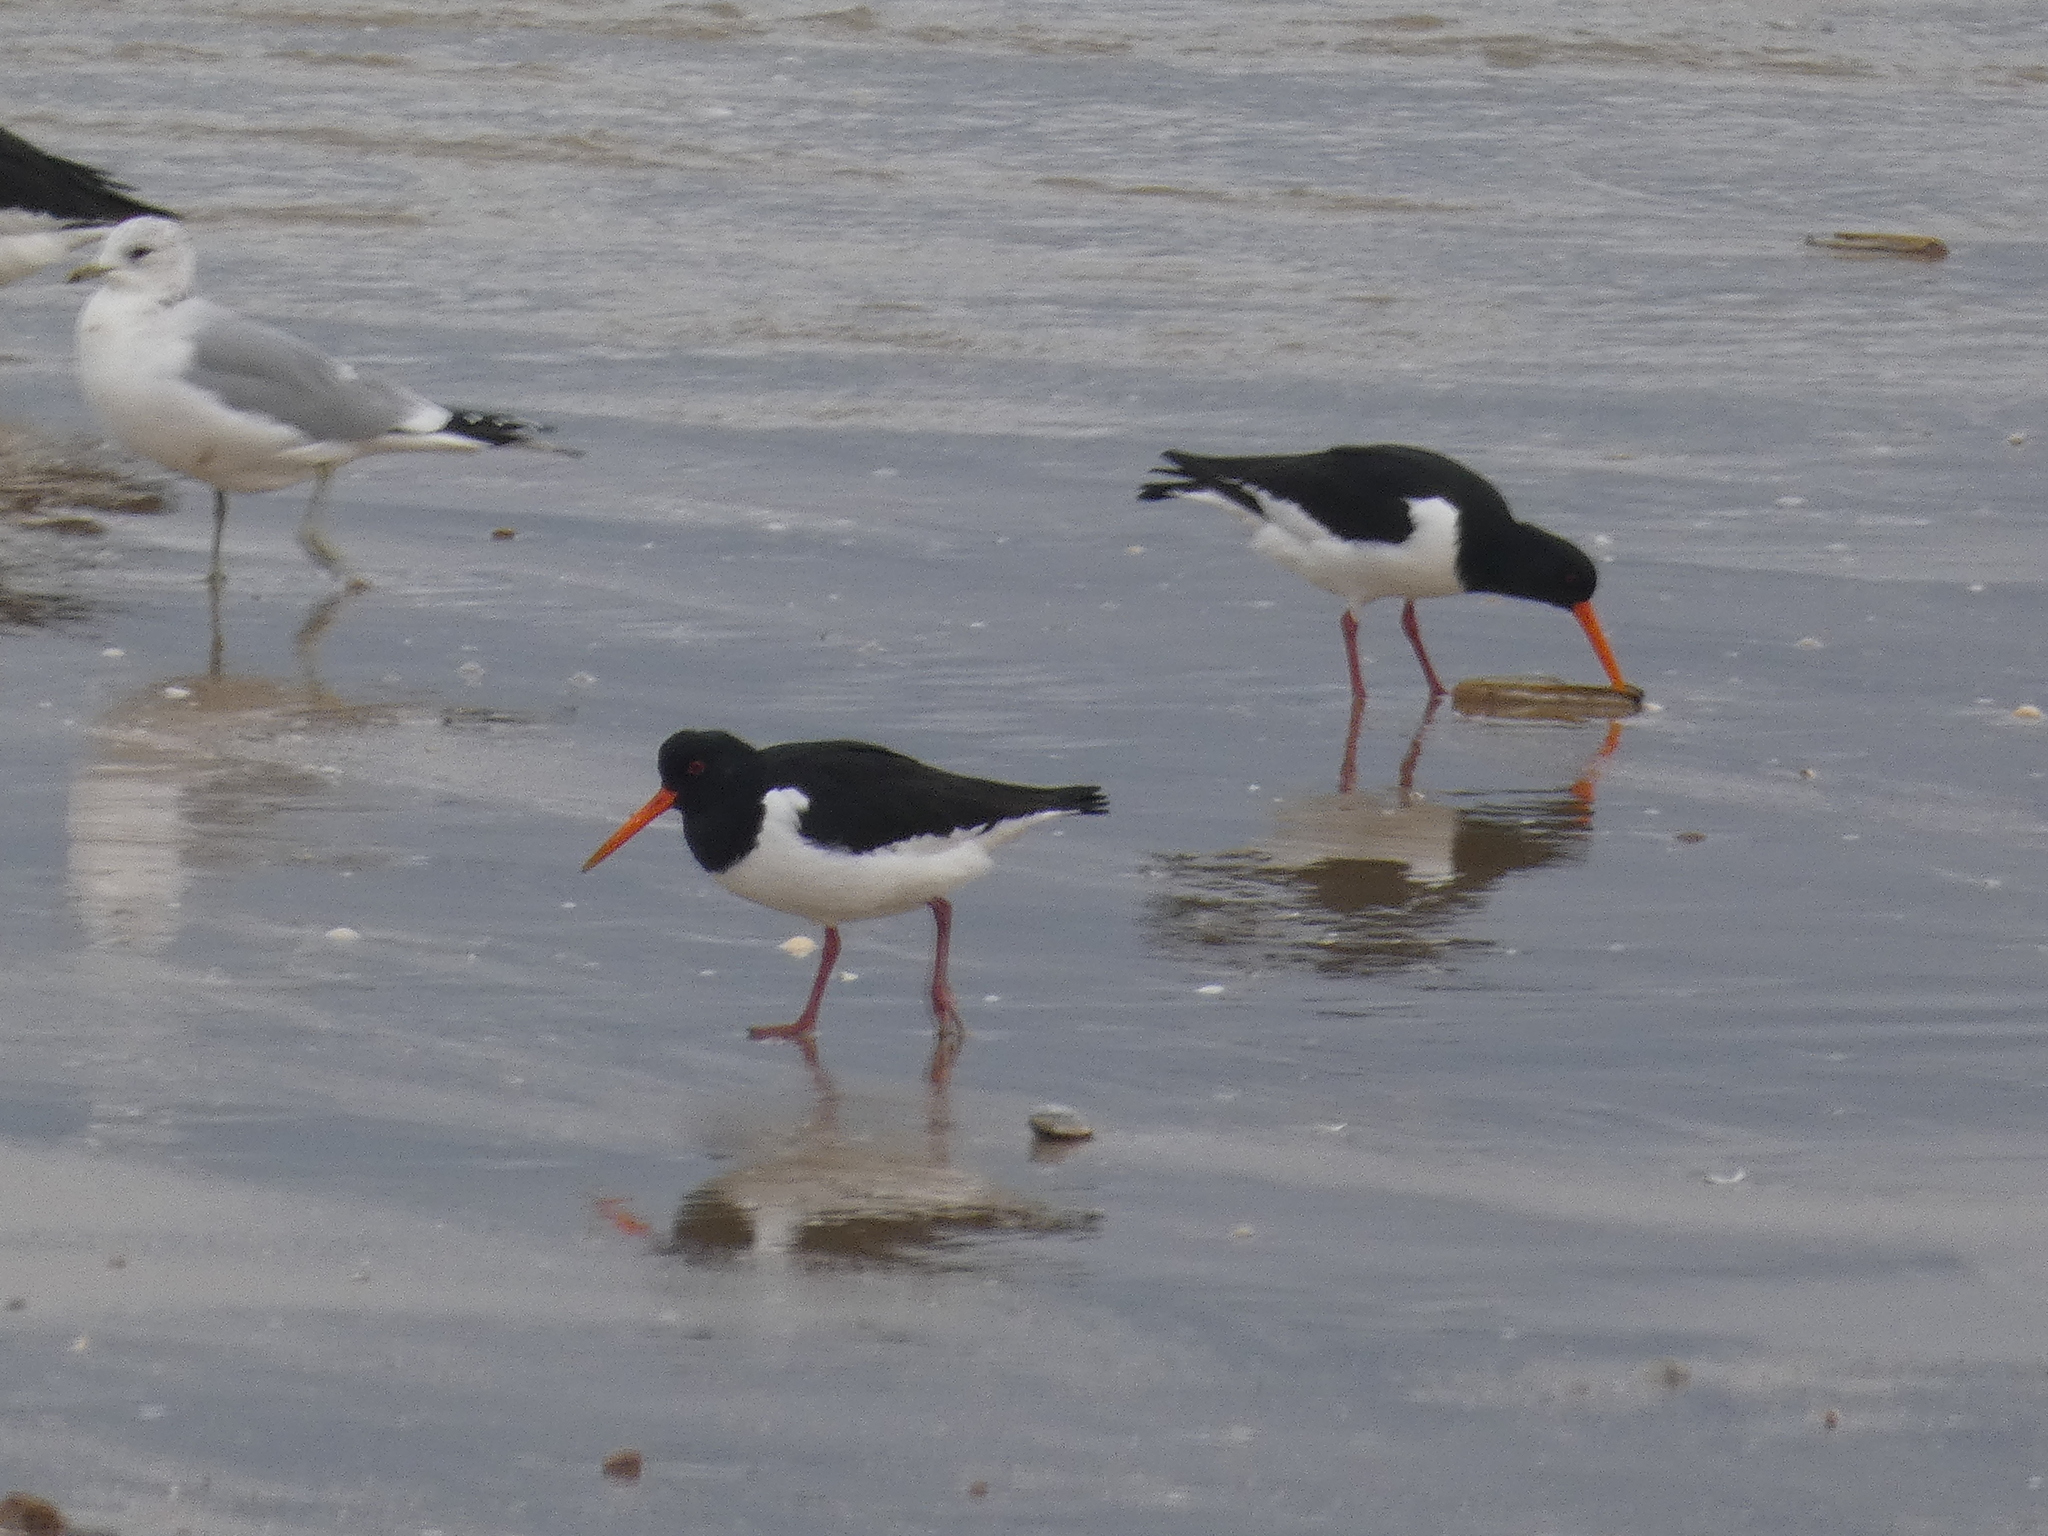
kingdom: Animalia
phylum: Chordata
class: Aves
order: Charadriiformes
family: Haematopodidae
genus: Haematopus
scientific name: Haematopus ostralegus
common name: Eurasian oystercatcher
